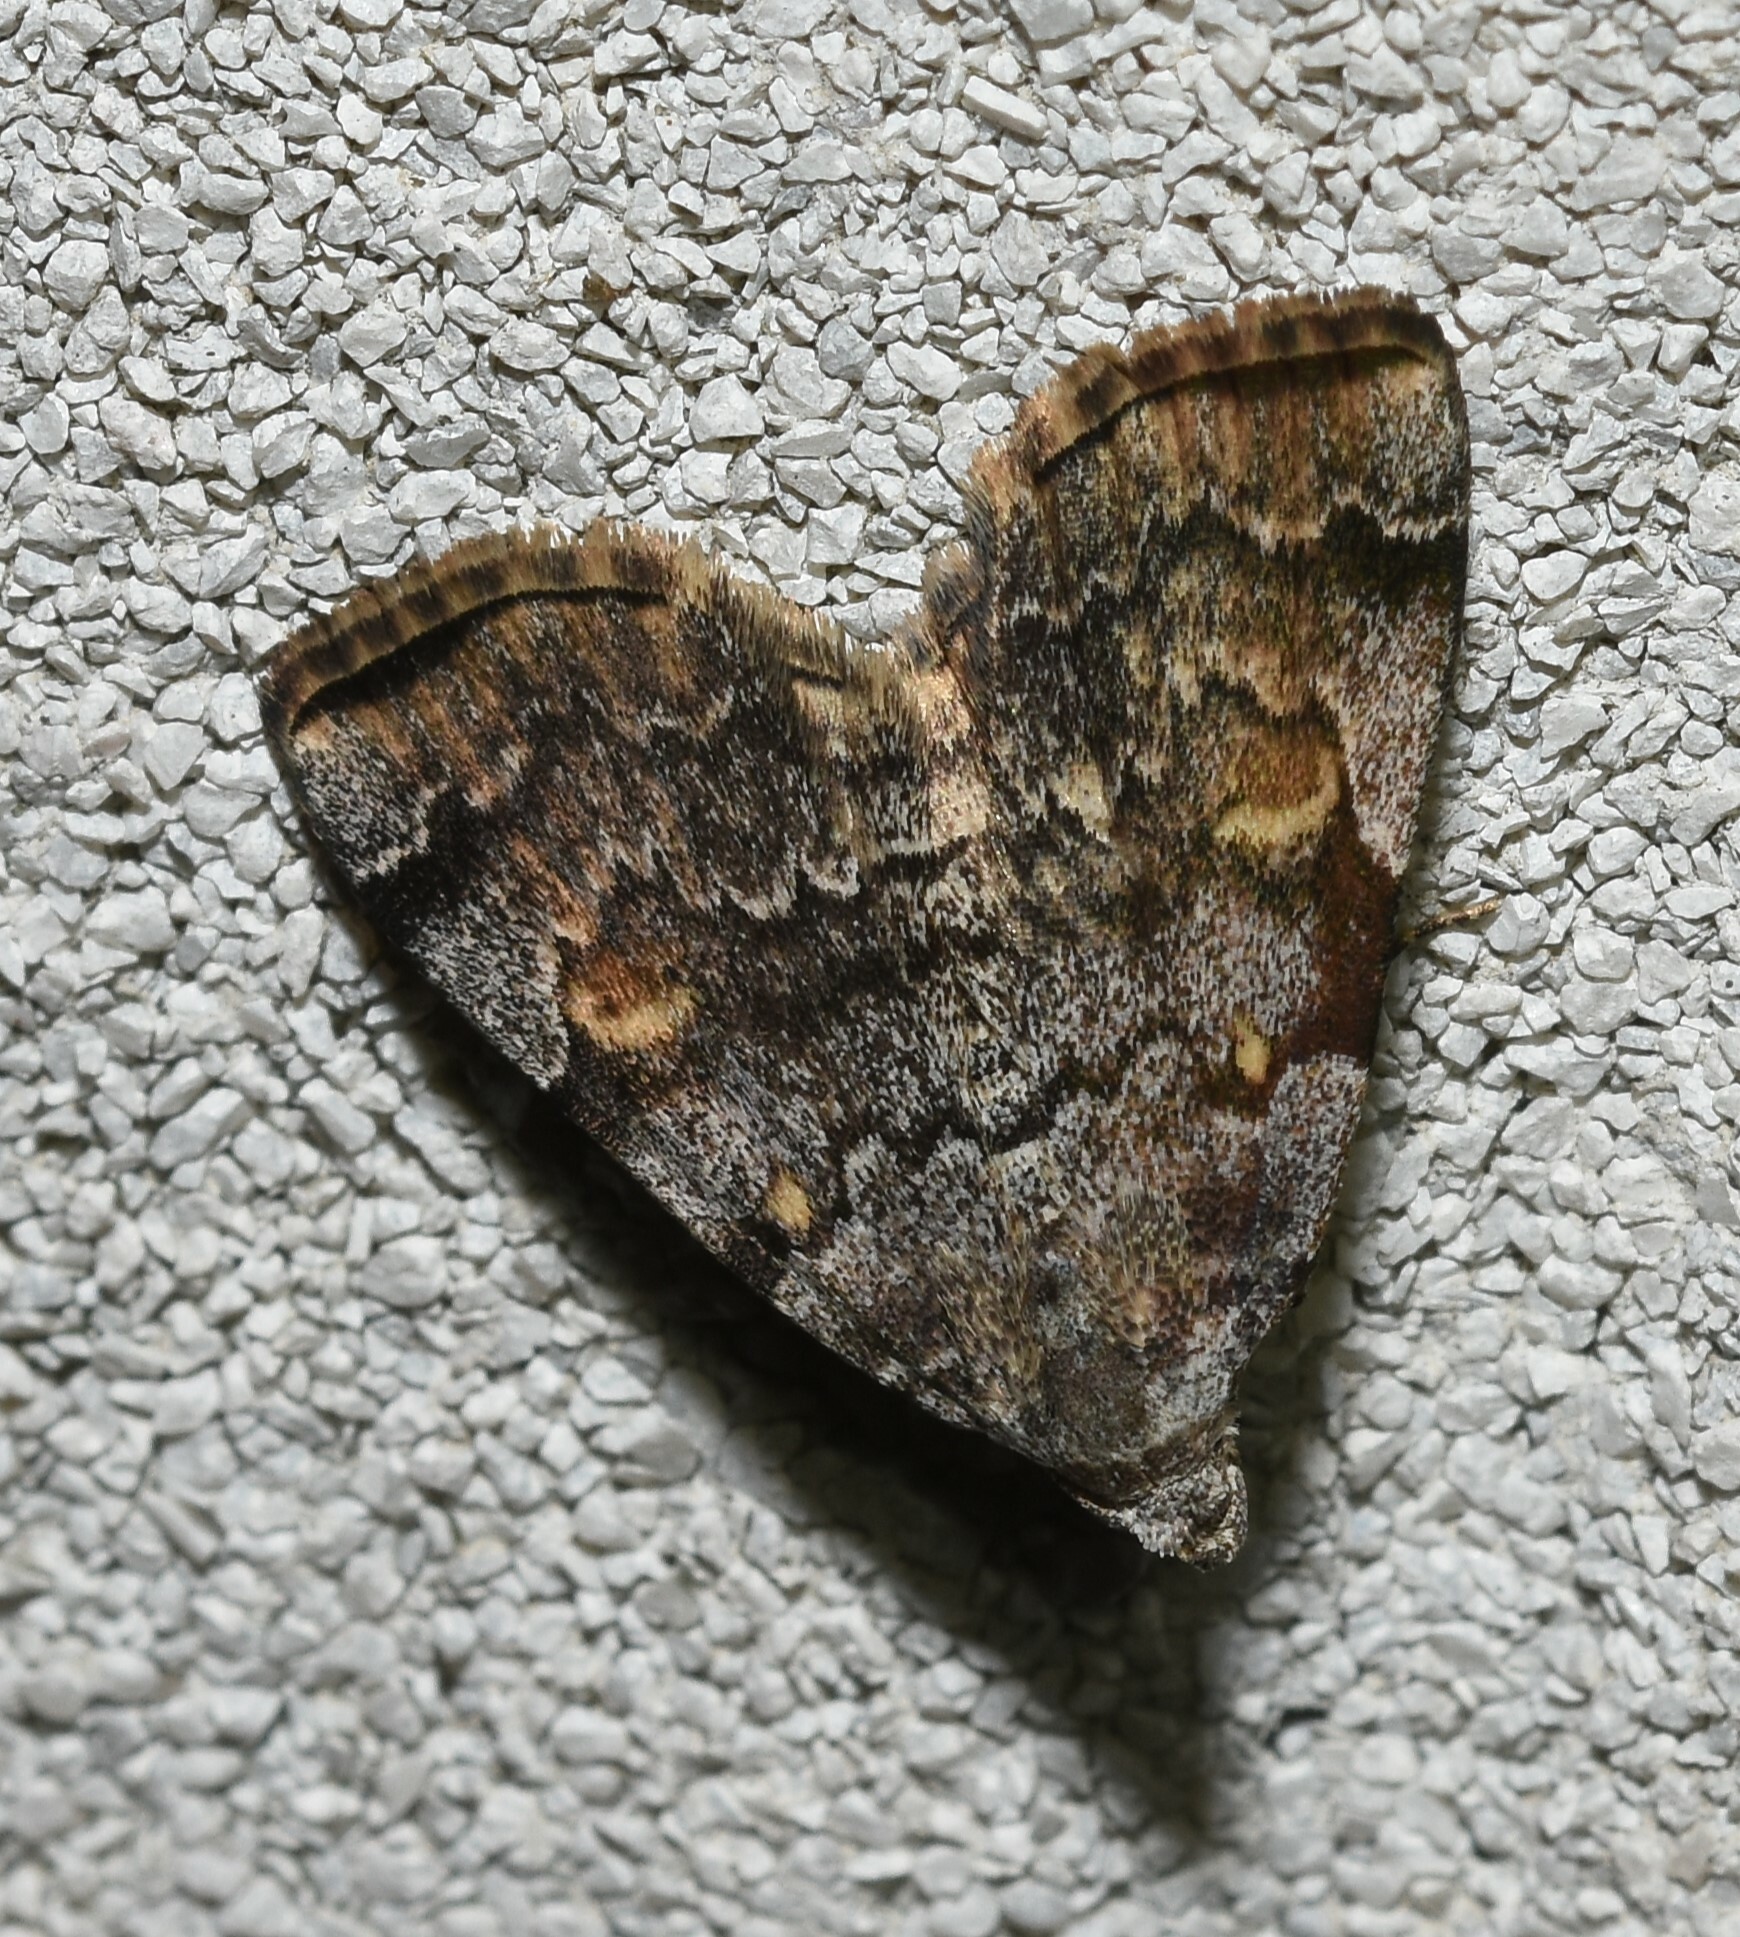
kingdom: Animalia
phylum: Arthropoda
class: Insecta
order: Lepidoptera
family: Erebidae
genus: Idia
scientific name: Idia americalis
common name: American idia moth
